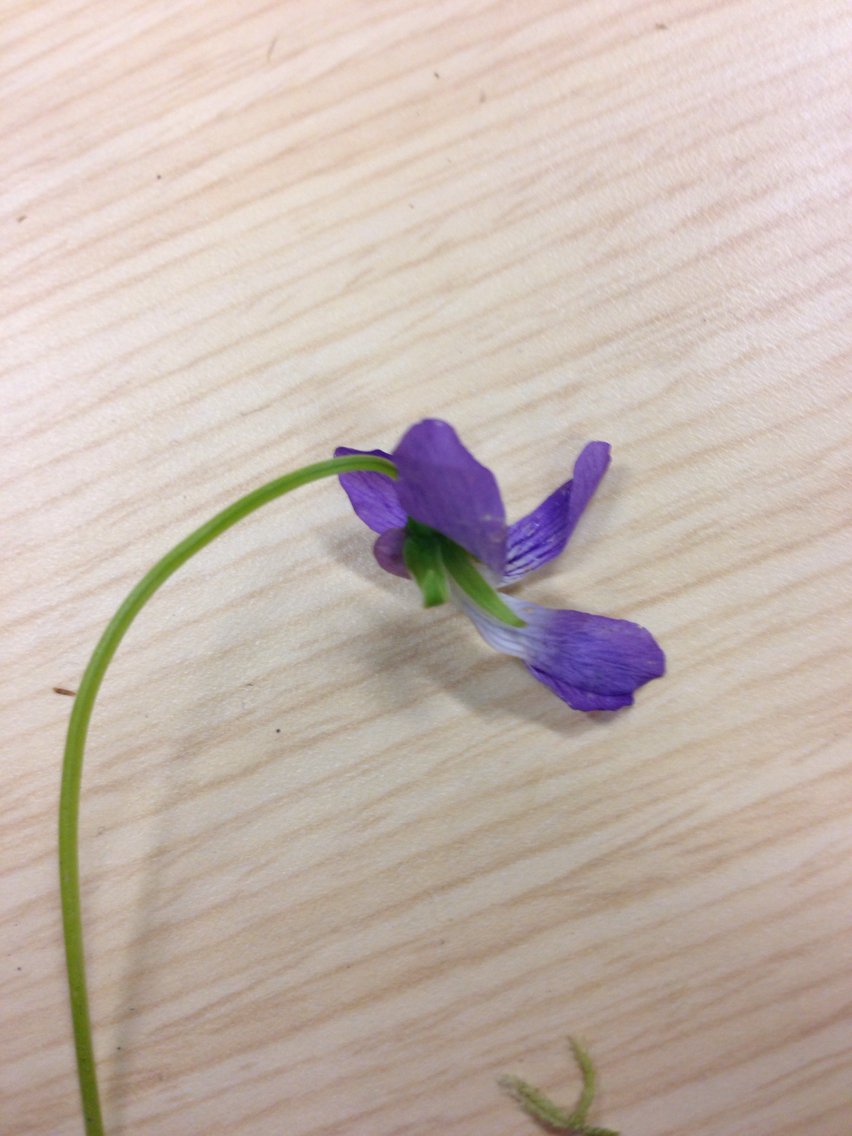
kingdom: Plantae
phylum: Tracheophyta
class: Magnoliopsida
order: Malpighiales
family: Violaceae
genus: Viola
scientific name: Viola cucullata
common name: Marsh blue violet
